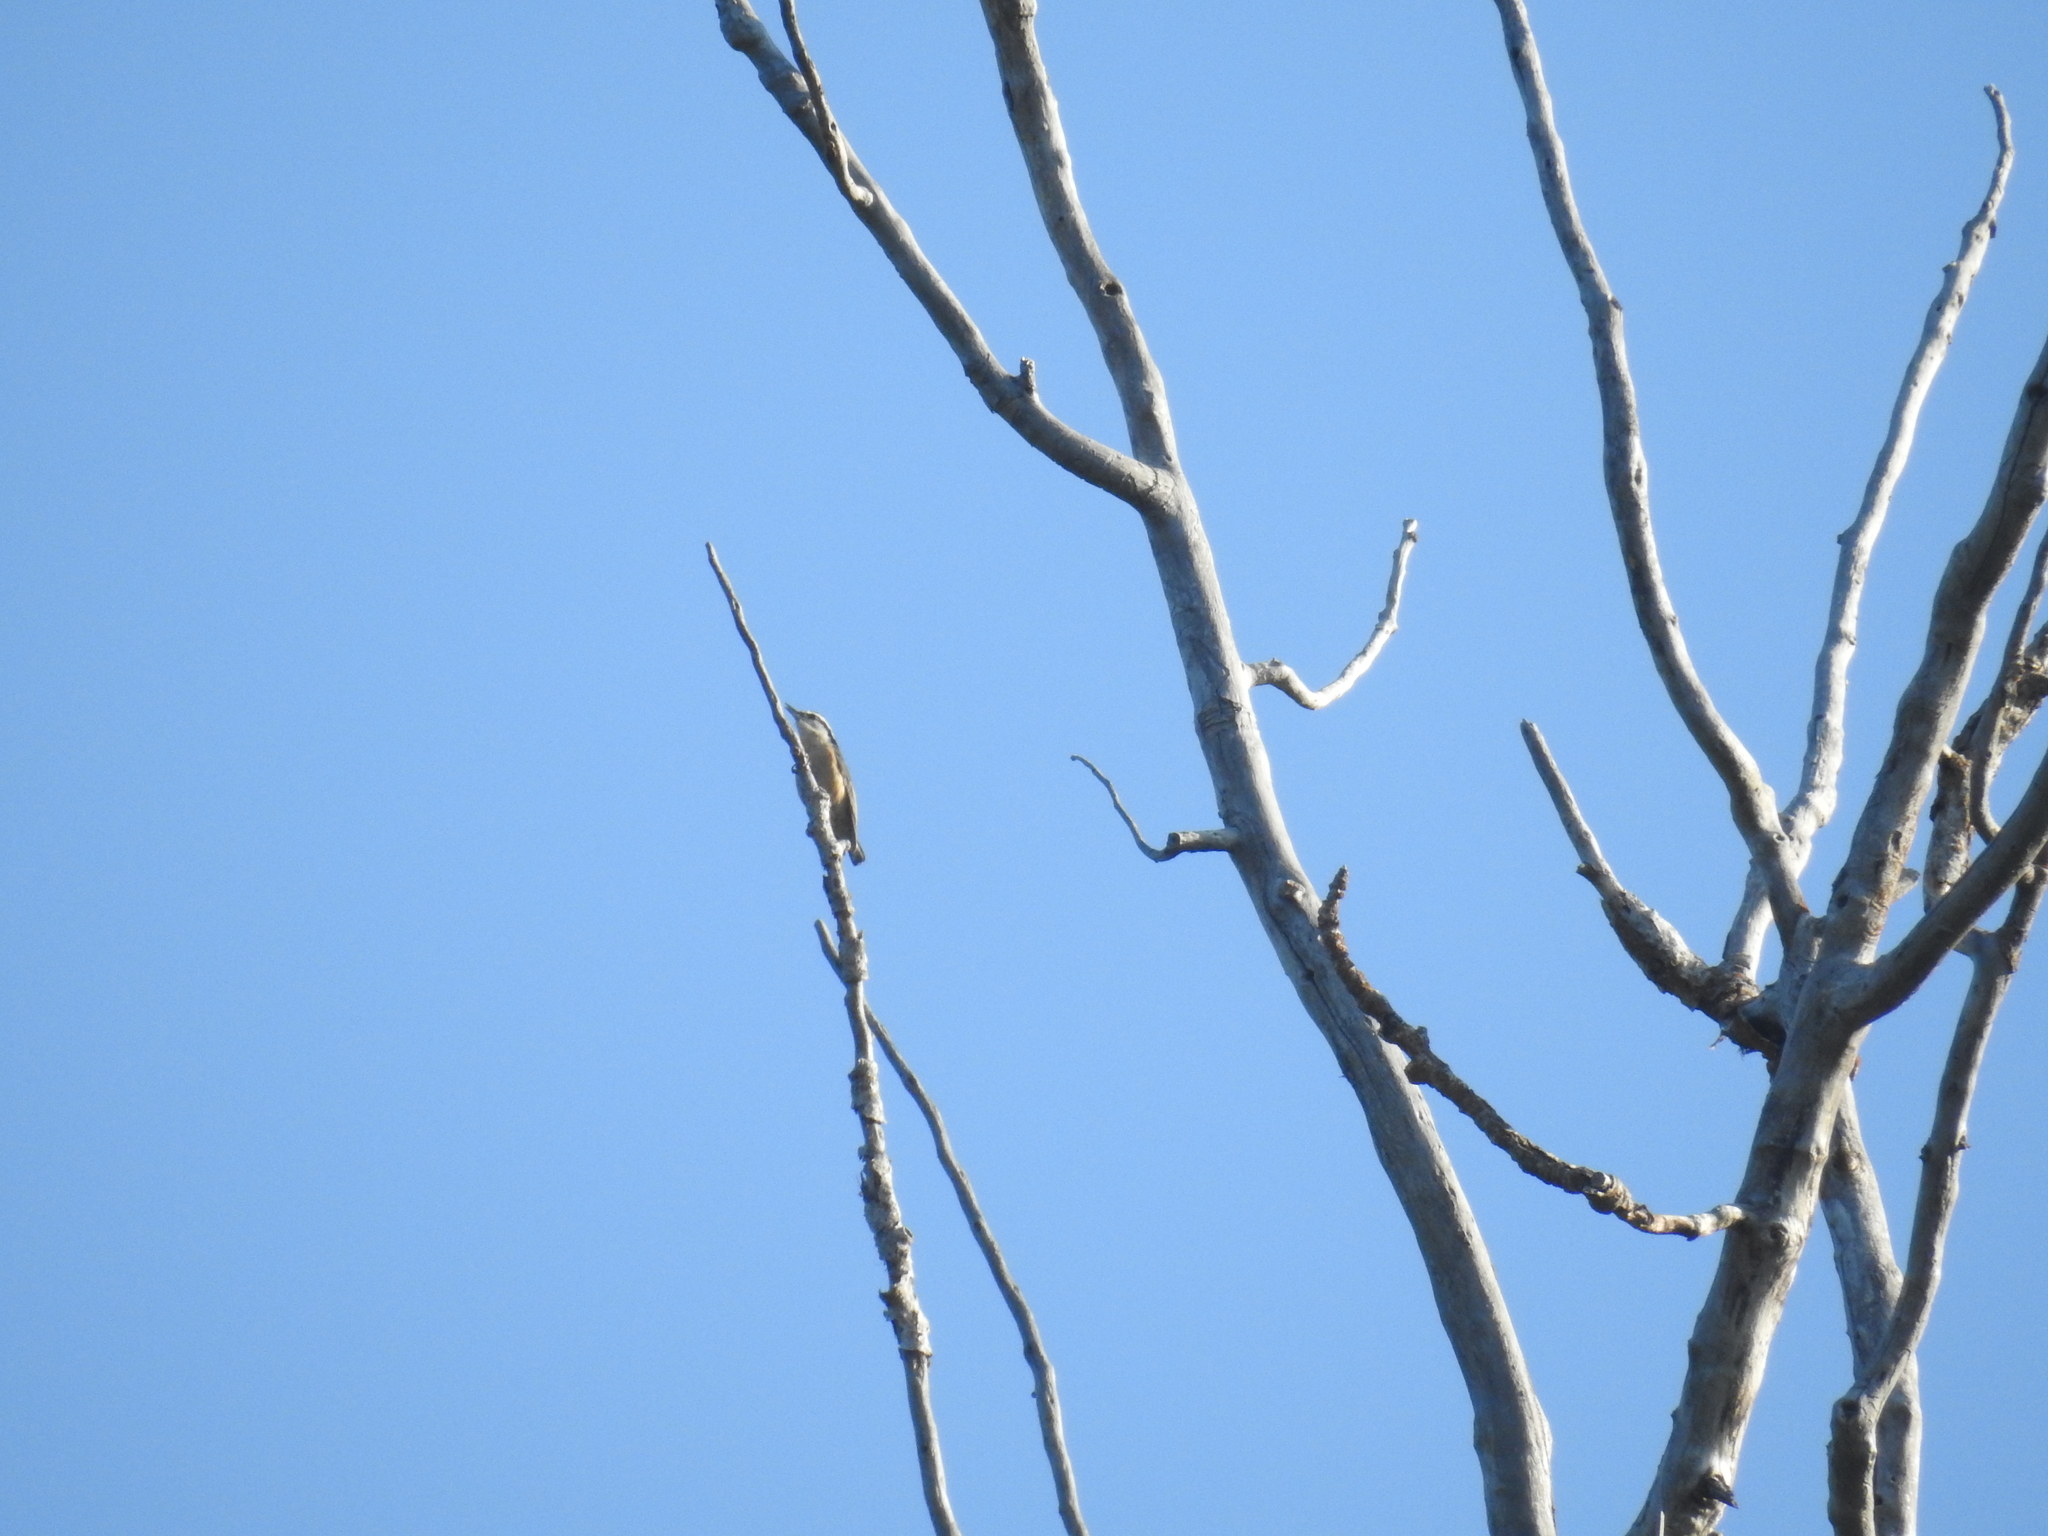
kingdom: Animalia
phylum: Chordata
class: Aves
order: Passeriformes
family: Sittidae
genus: Sitta
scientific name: Sitta canadensis
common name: Red-breasted nuthatch
